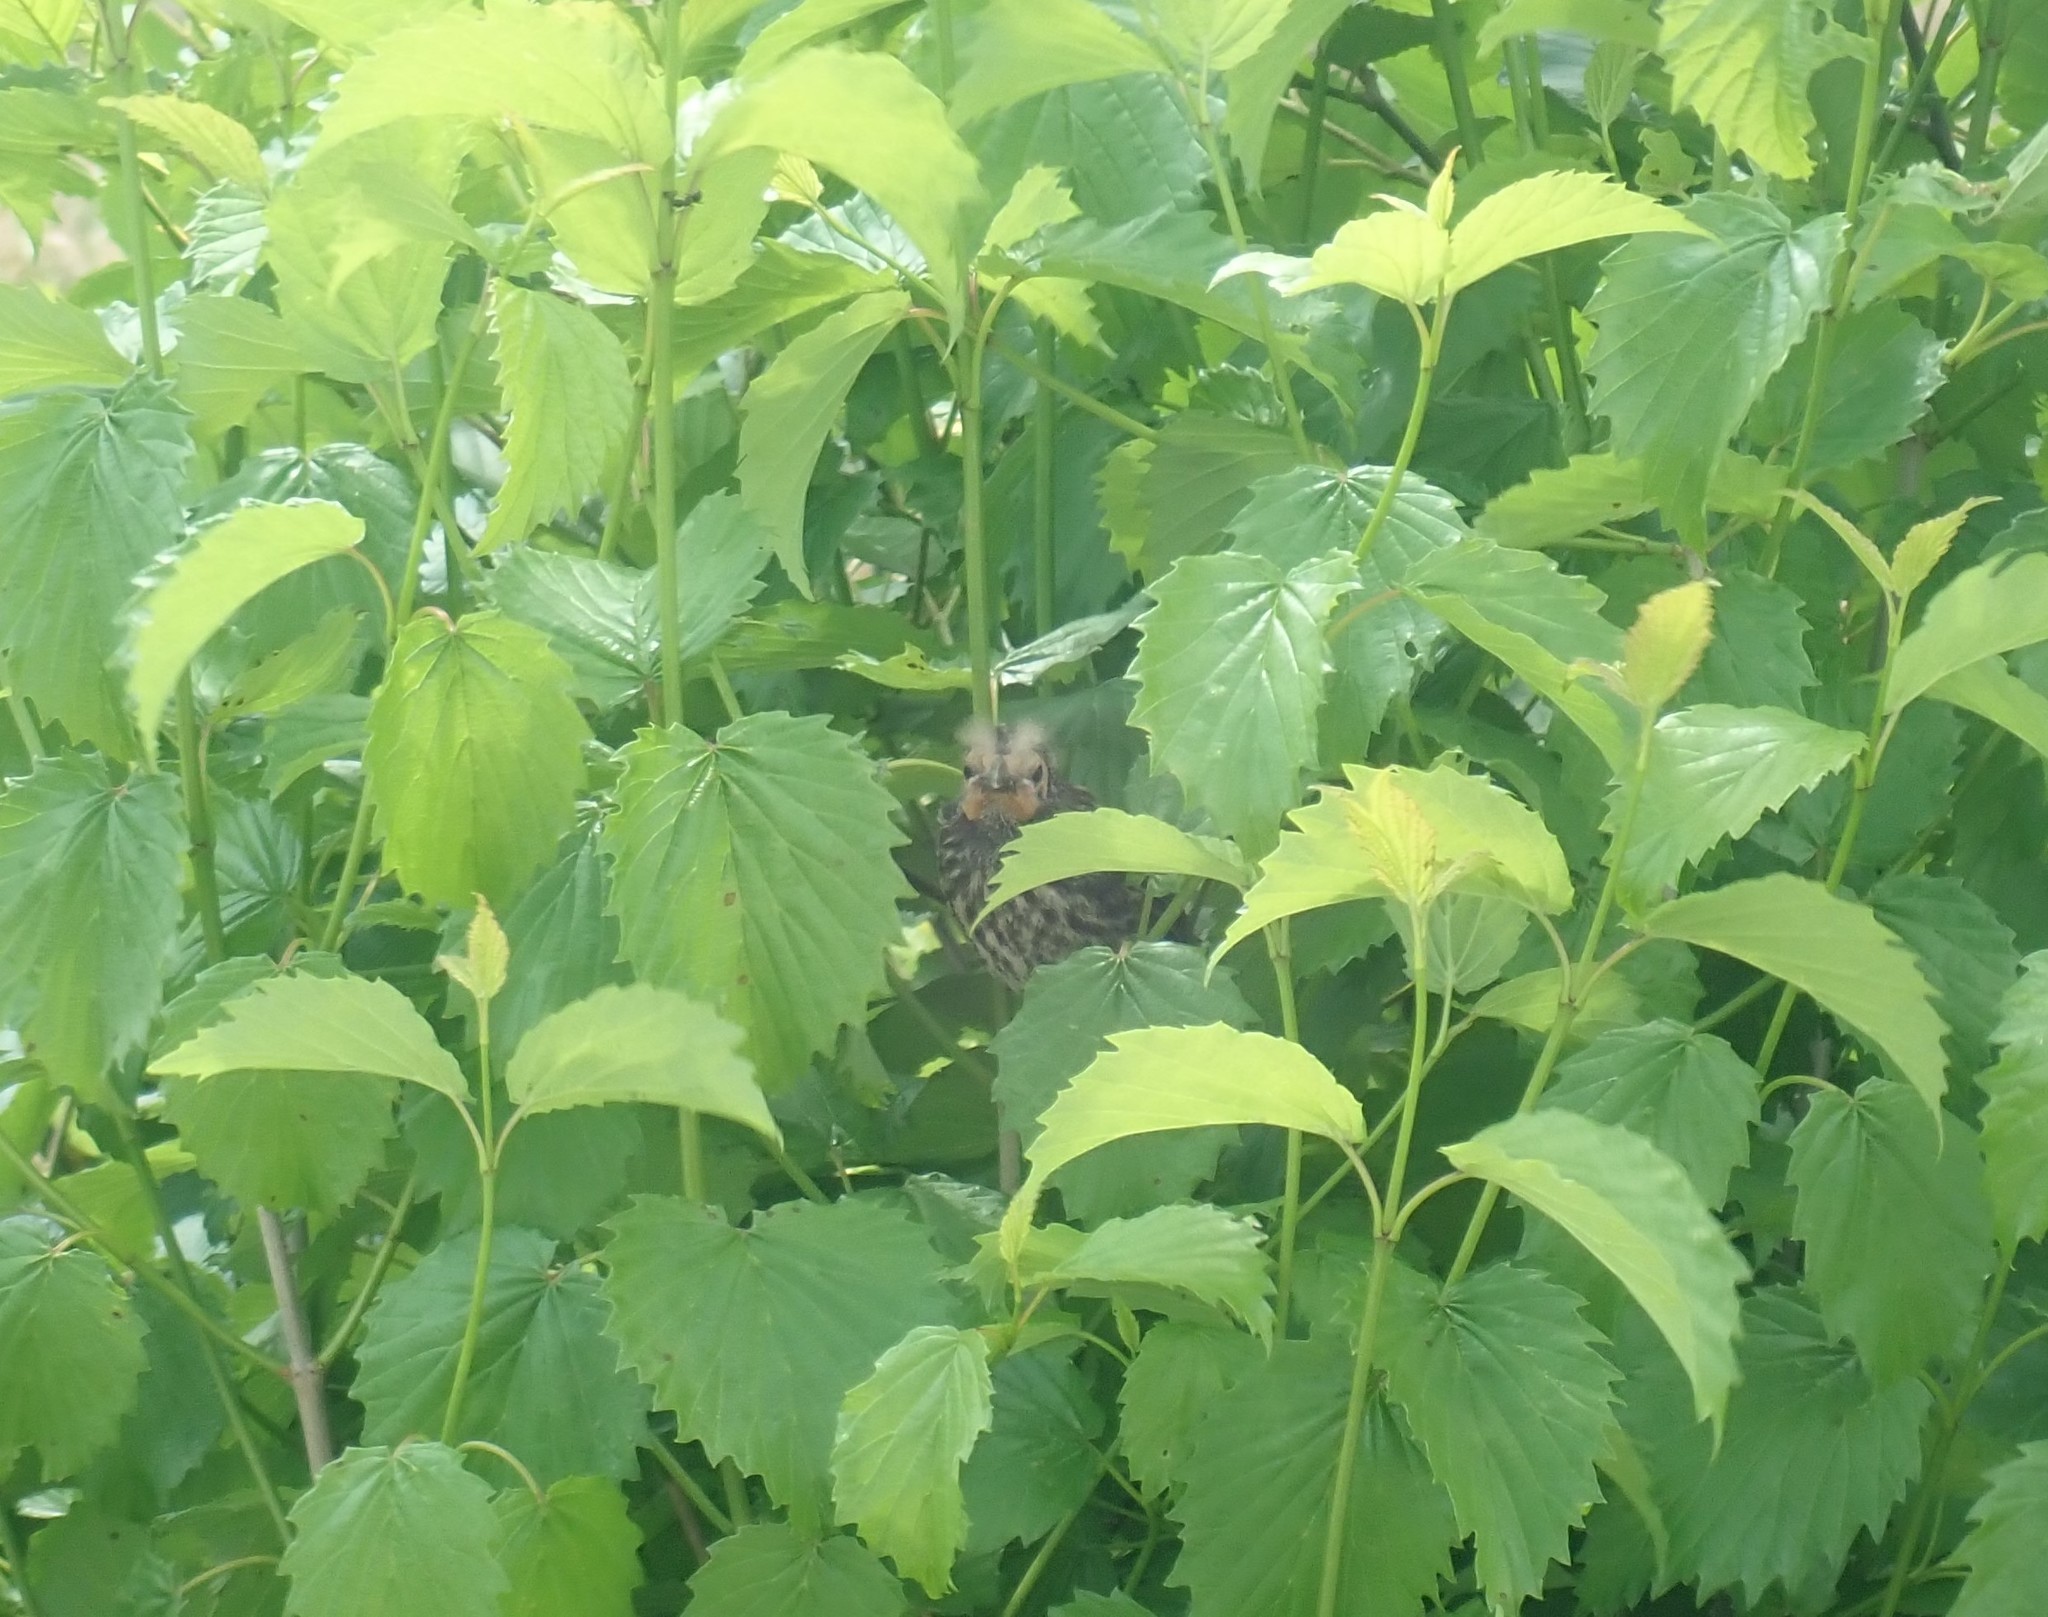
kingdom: Animalia
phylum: Chordata
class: Aves
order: Passeriformes
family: Icteridae
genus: Agelaius
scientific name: Agelaius phoeniceus
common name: Red-winged blackbird
